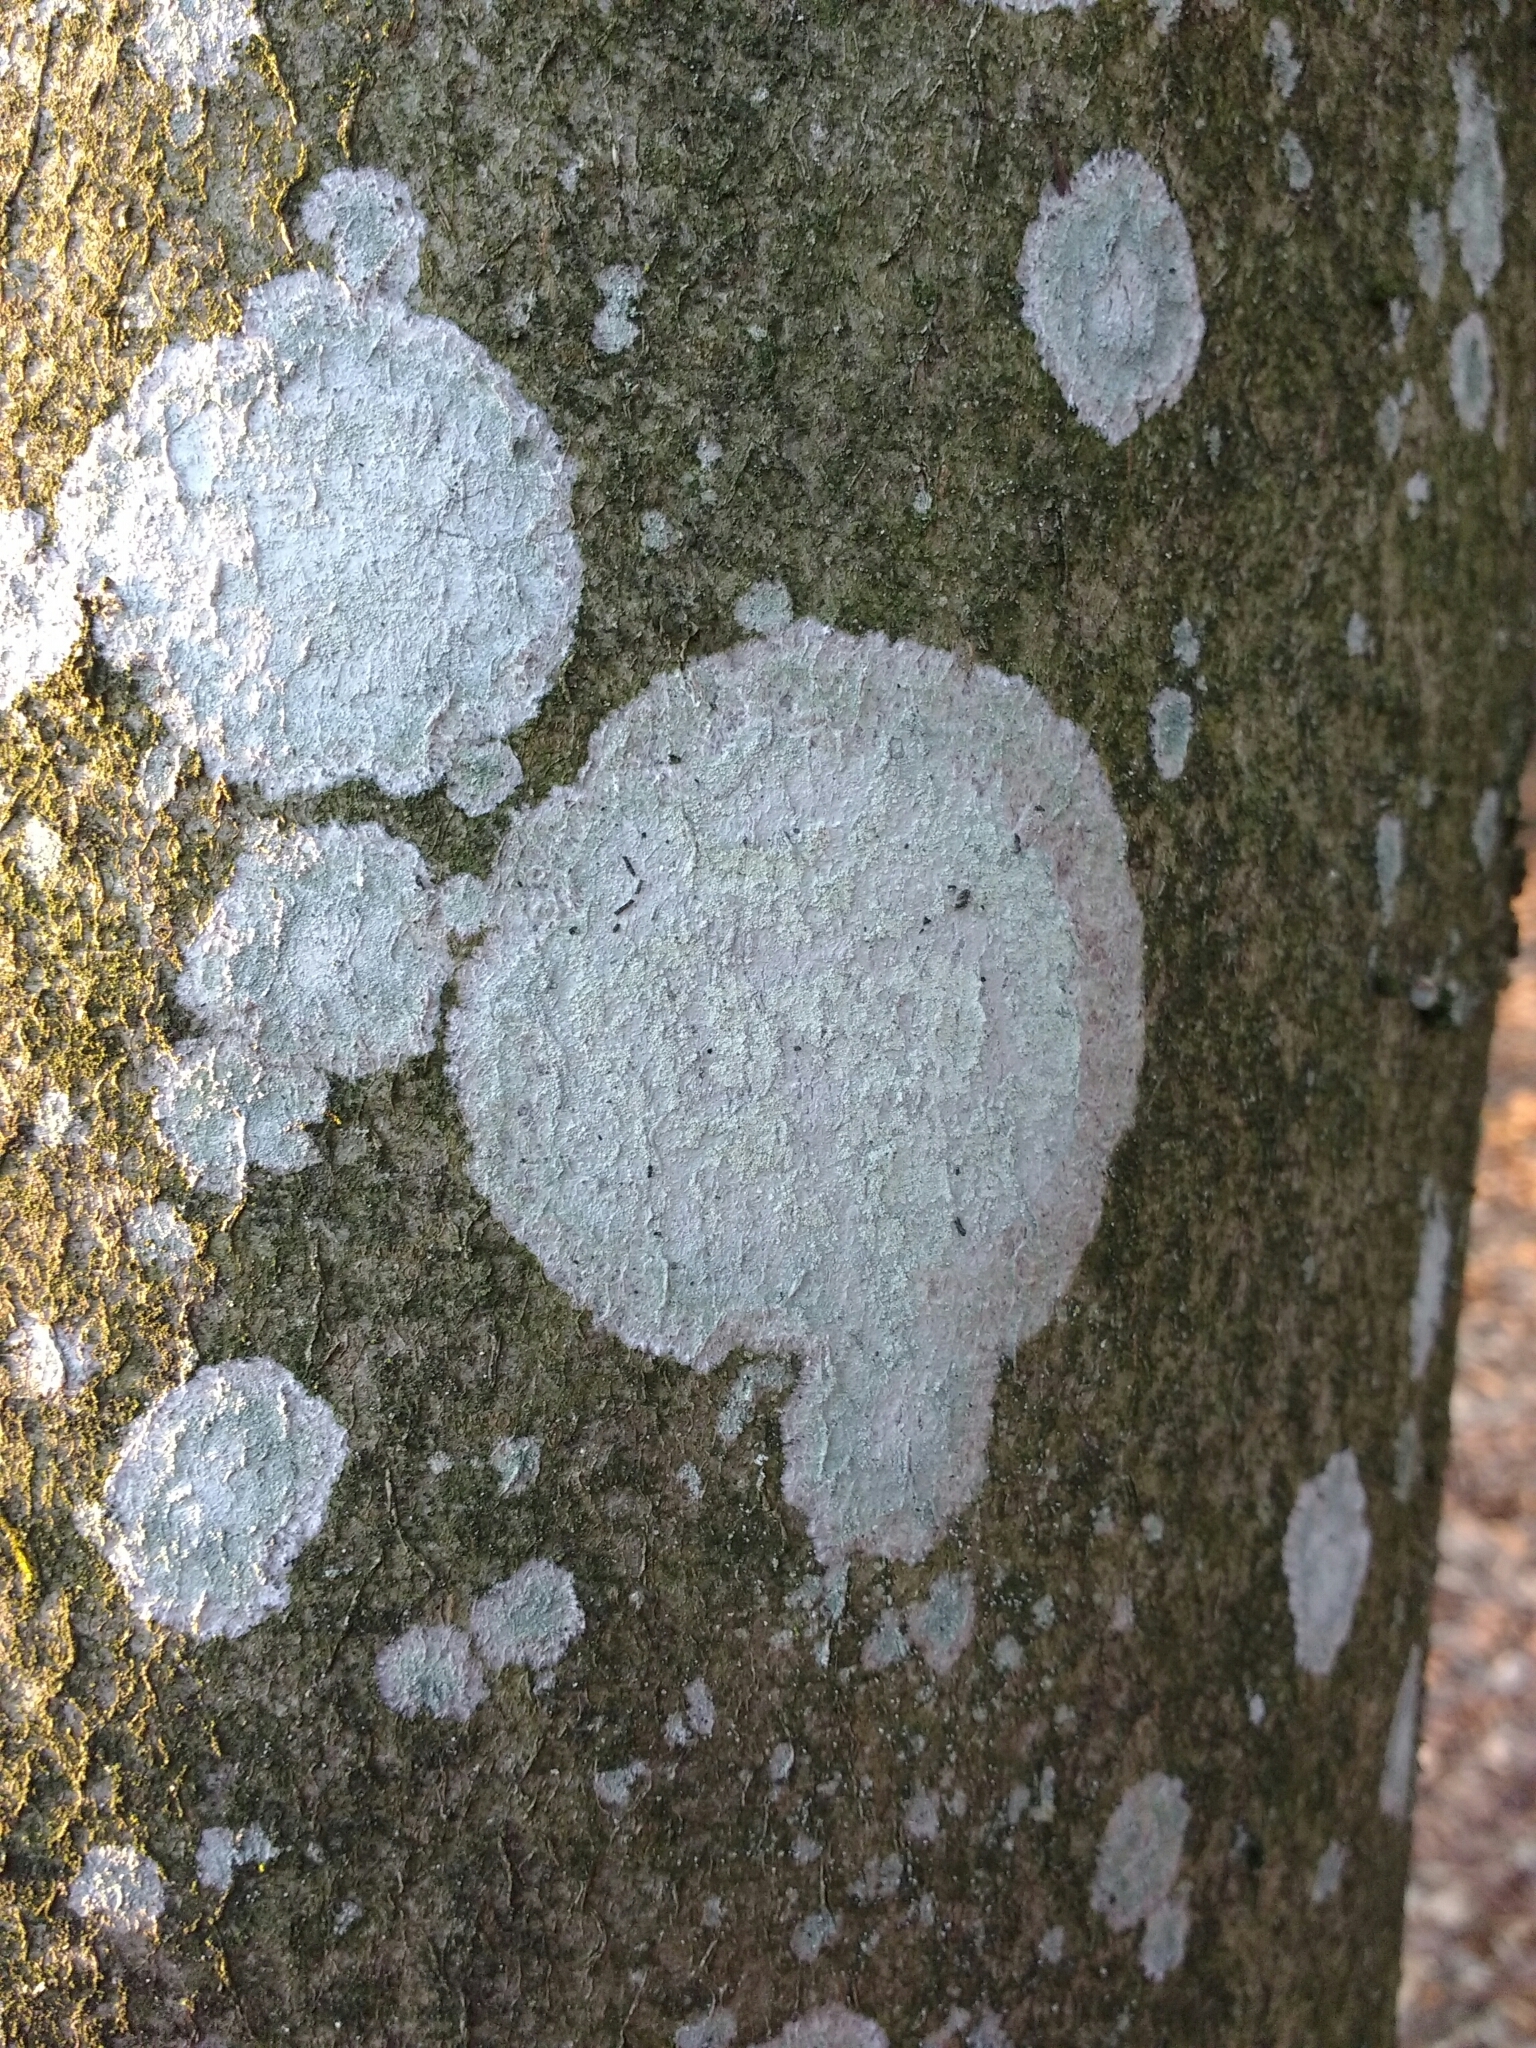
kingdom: Fungi
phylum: Ascomycota
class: Lecanoromycetes
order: Ostropales
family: Phlyctidaceae
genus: Phlyctis
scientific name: Phlyctis argena
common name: Whitewash lichen
